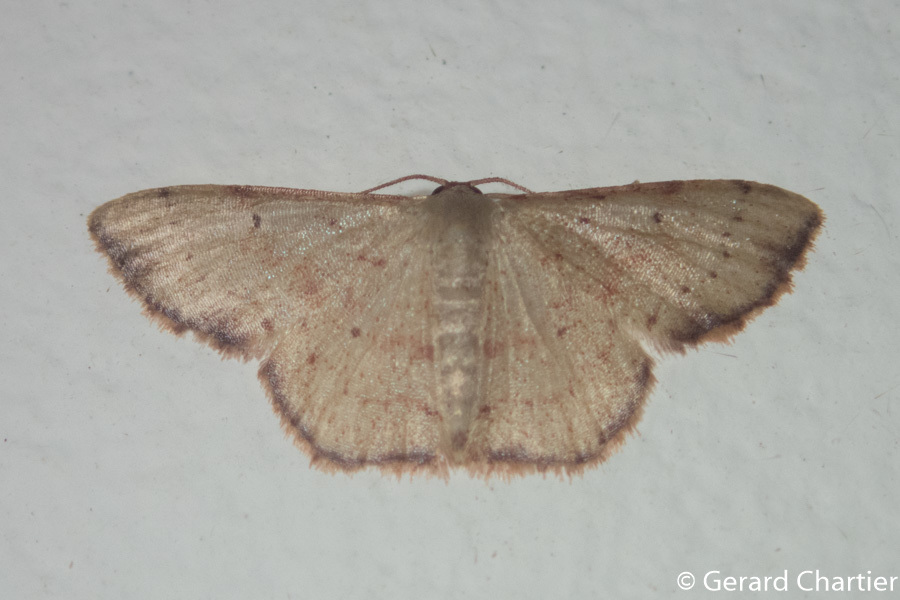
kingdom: Animalia
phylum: Arthropoda
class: Insecta
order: Lepidoptera
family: Geometridae
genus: Idaea
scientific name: Idaea craspedota
